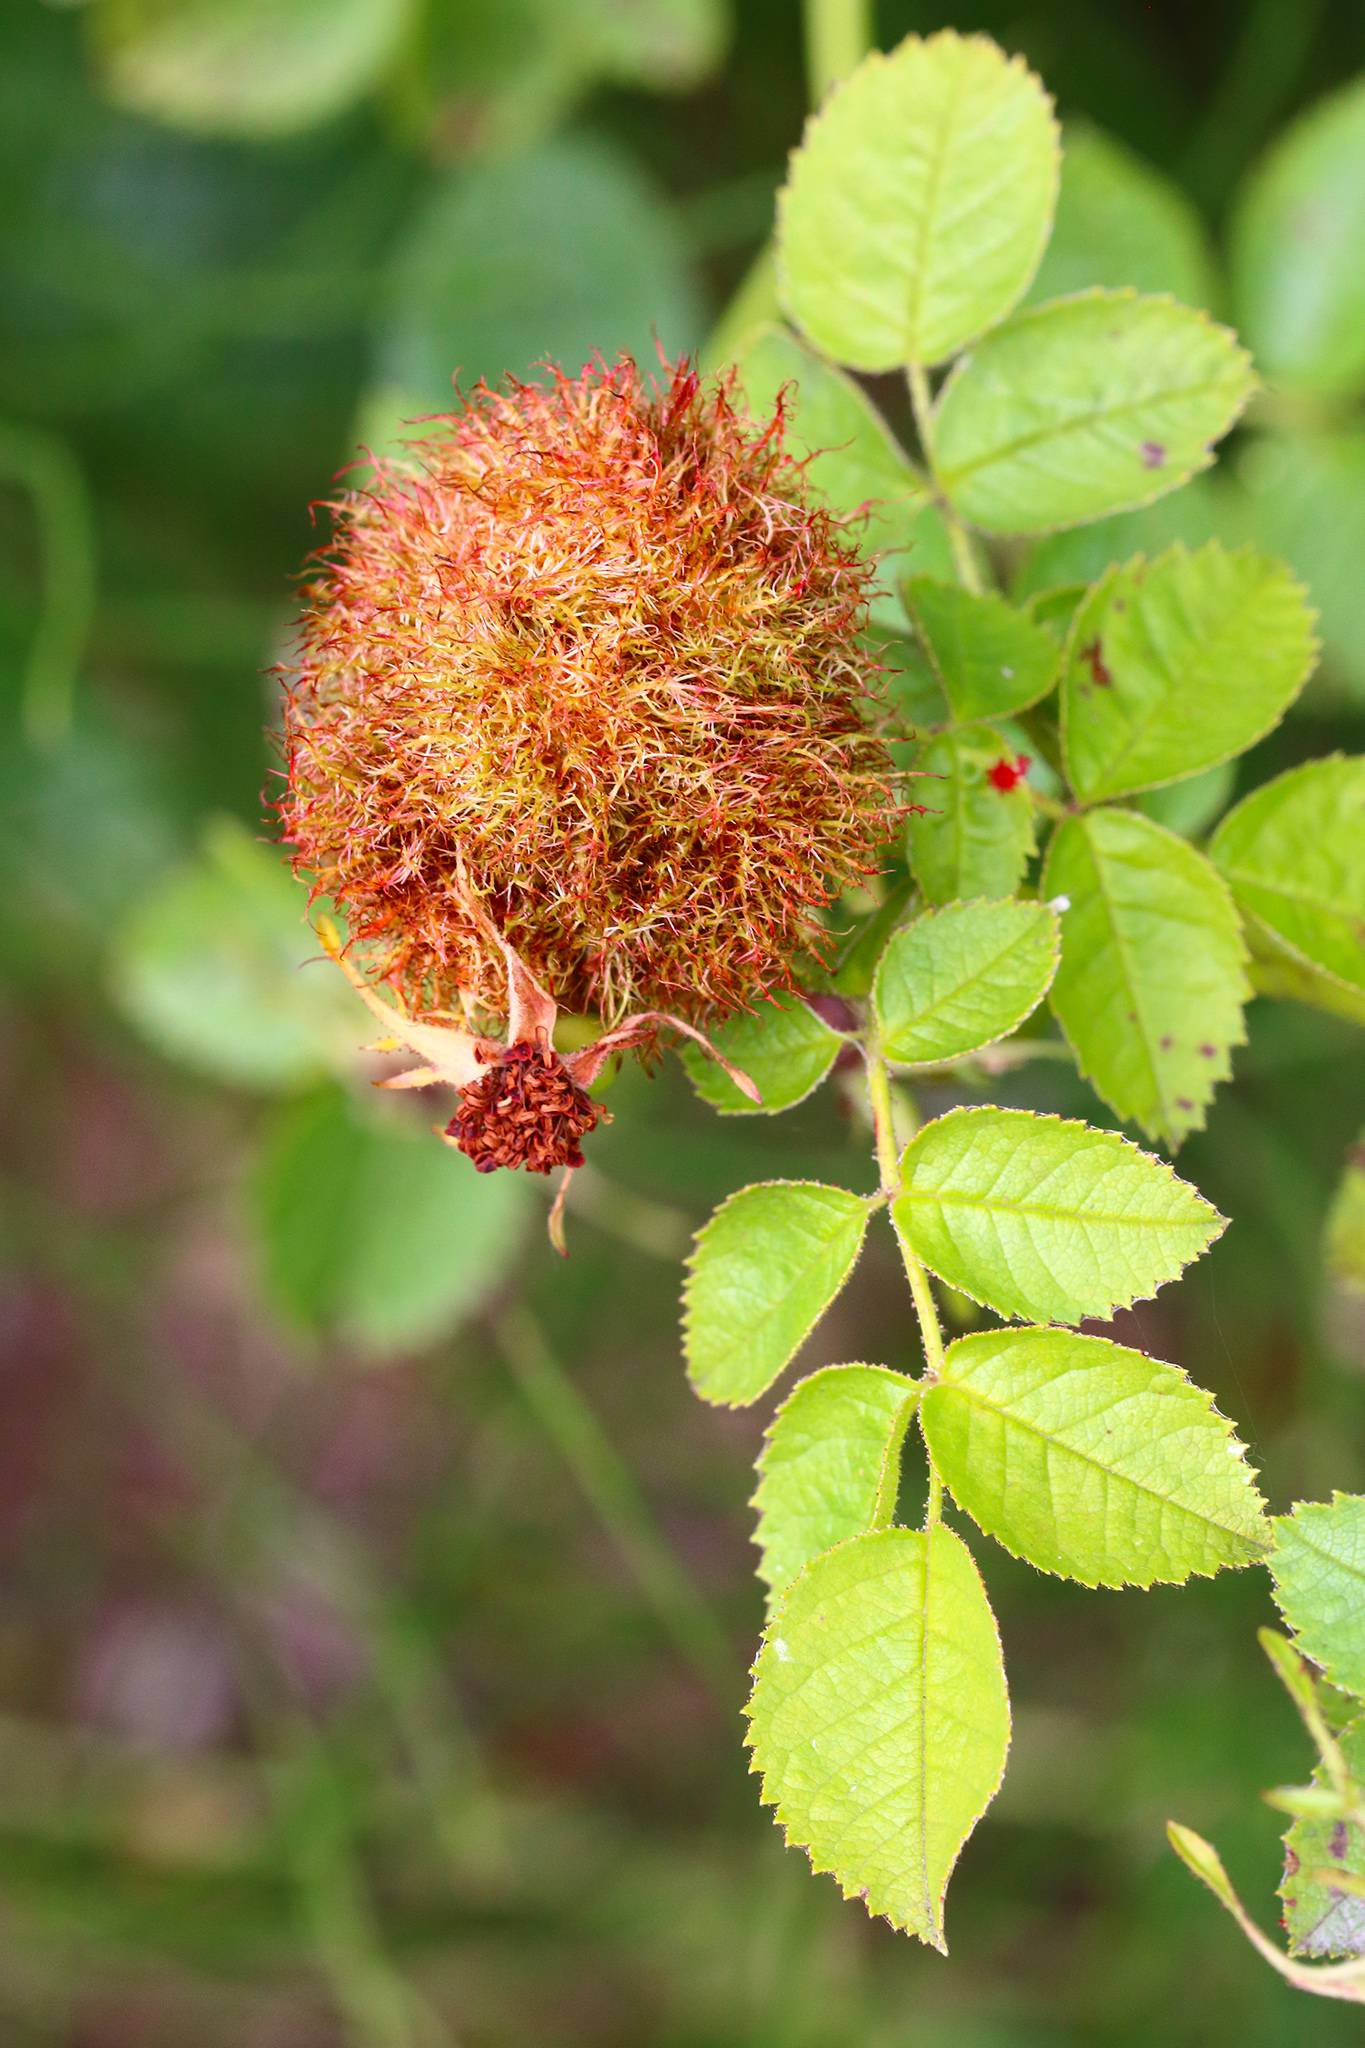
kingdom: Animalia
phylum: Arthropoda
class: Insecta
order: Hymenoptera
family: Cynipidae
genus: Diplolepis
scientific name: Diplolepis rosae
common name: Bedeguar gall
